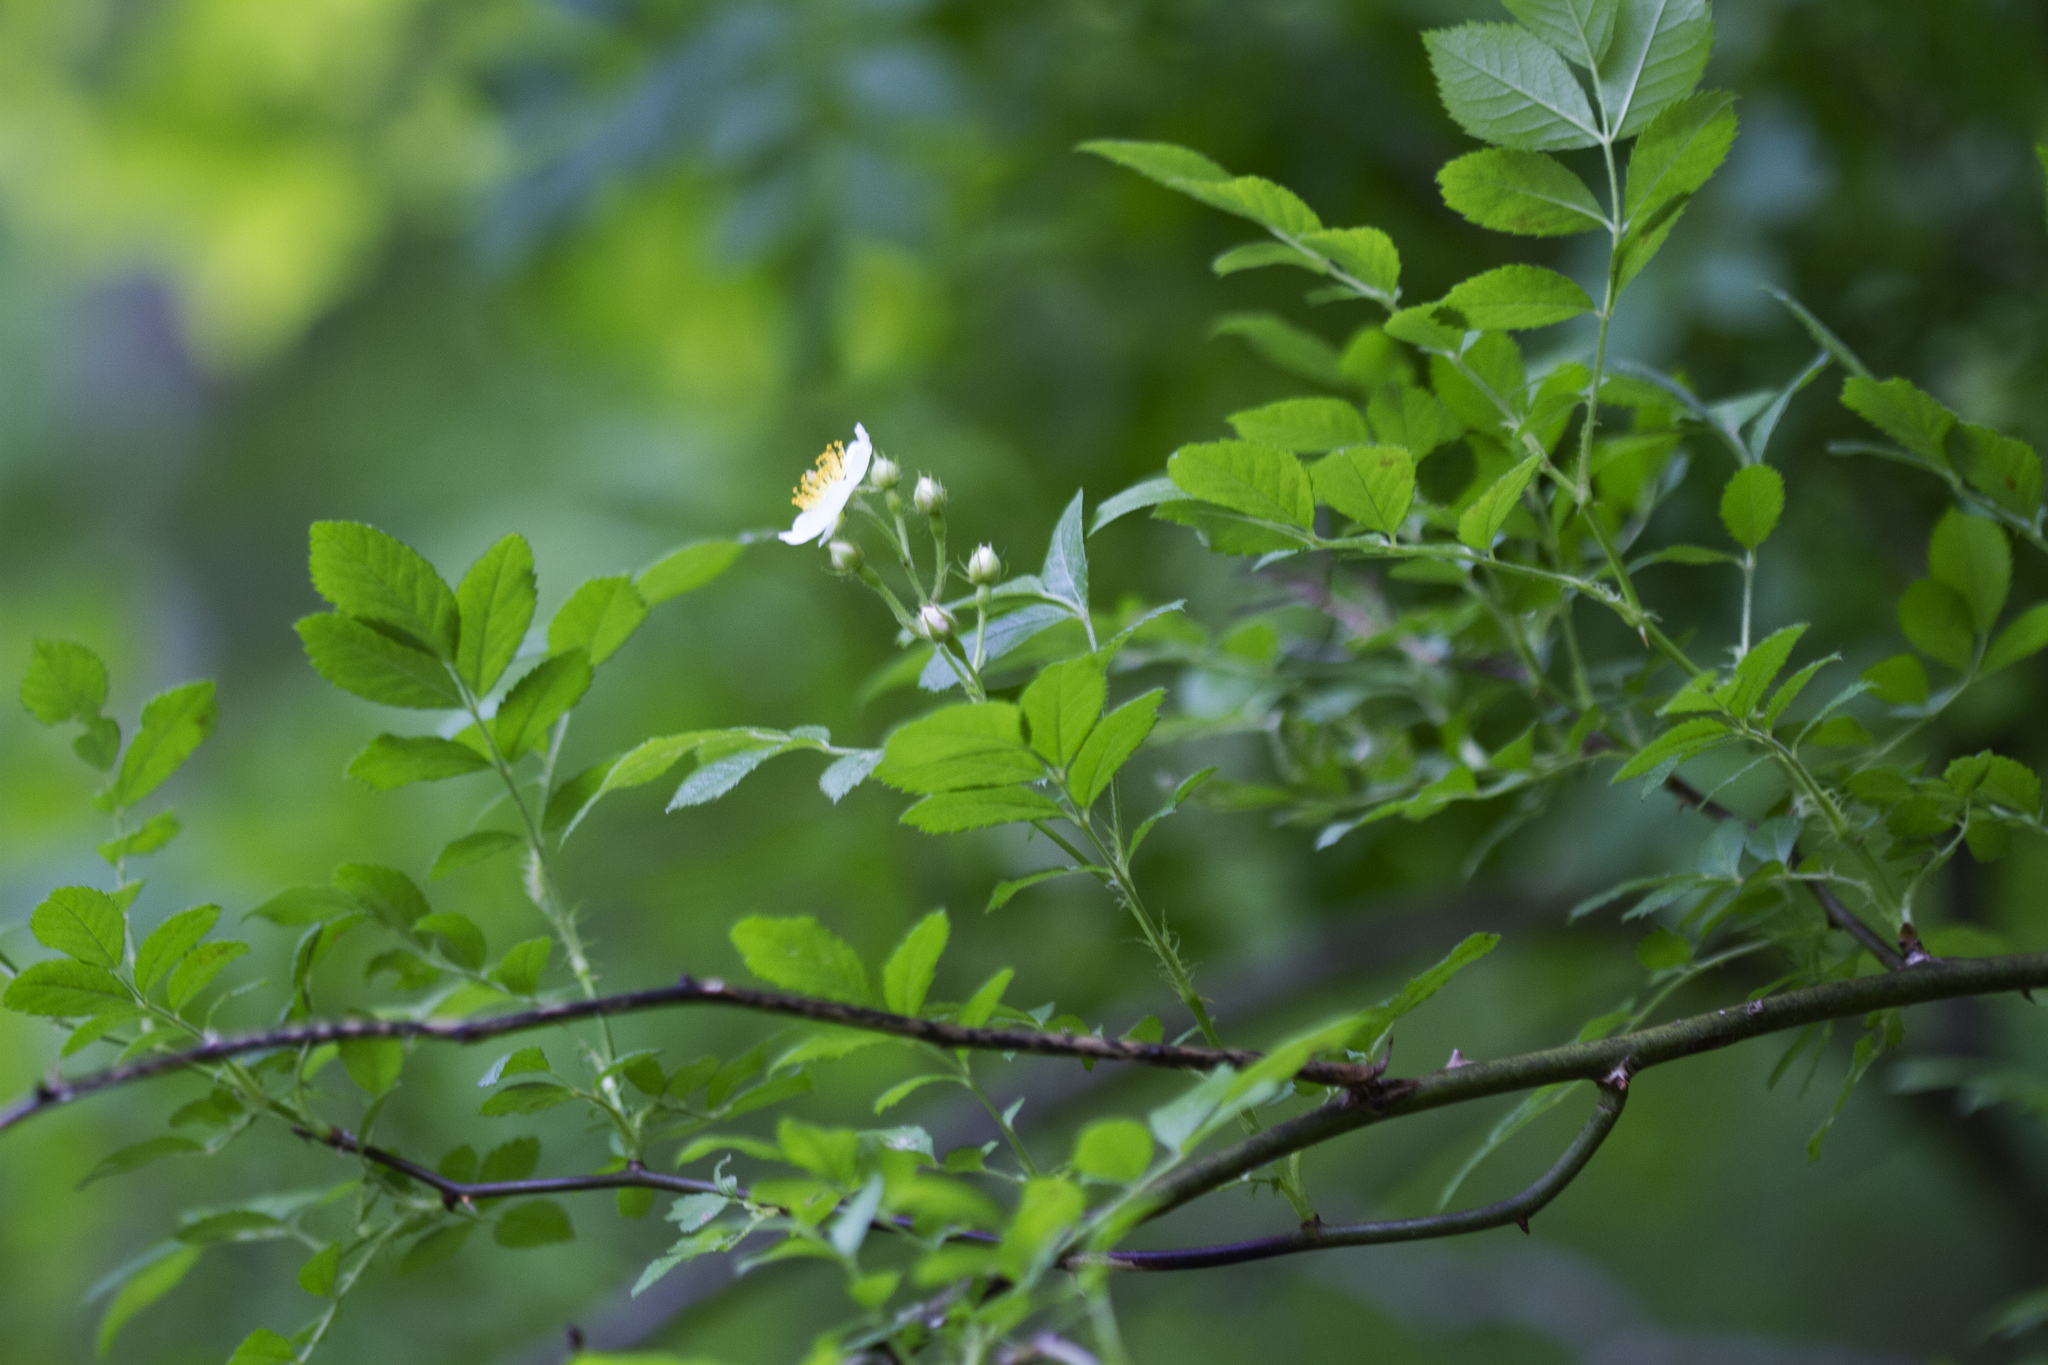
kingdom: Plantae
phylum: Tracheophyta
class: Magnoliopsida
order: Rosales
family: Rosaceae
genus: Rosa
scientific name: Rosa multiflora
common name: Multiflora rose
